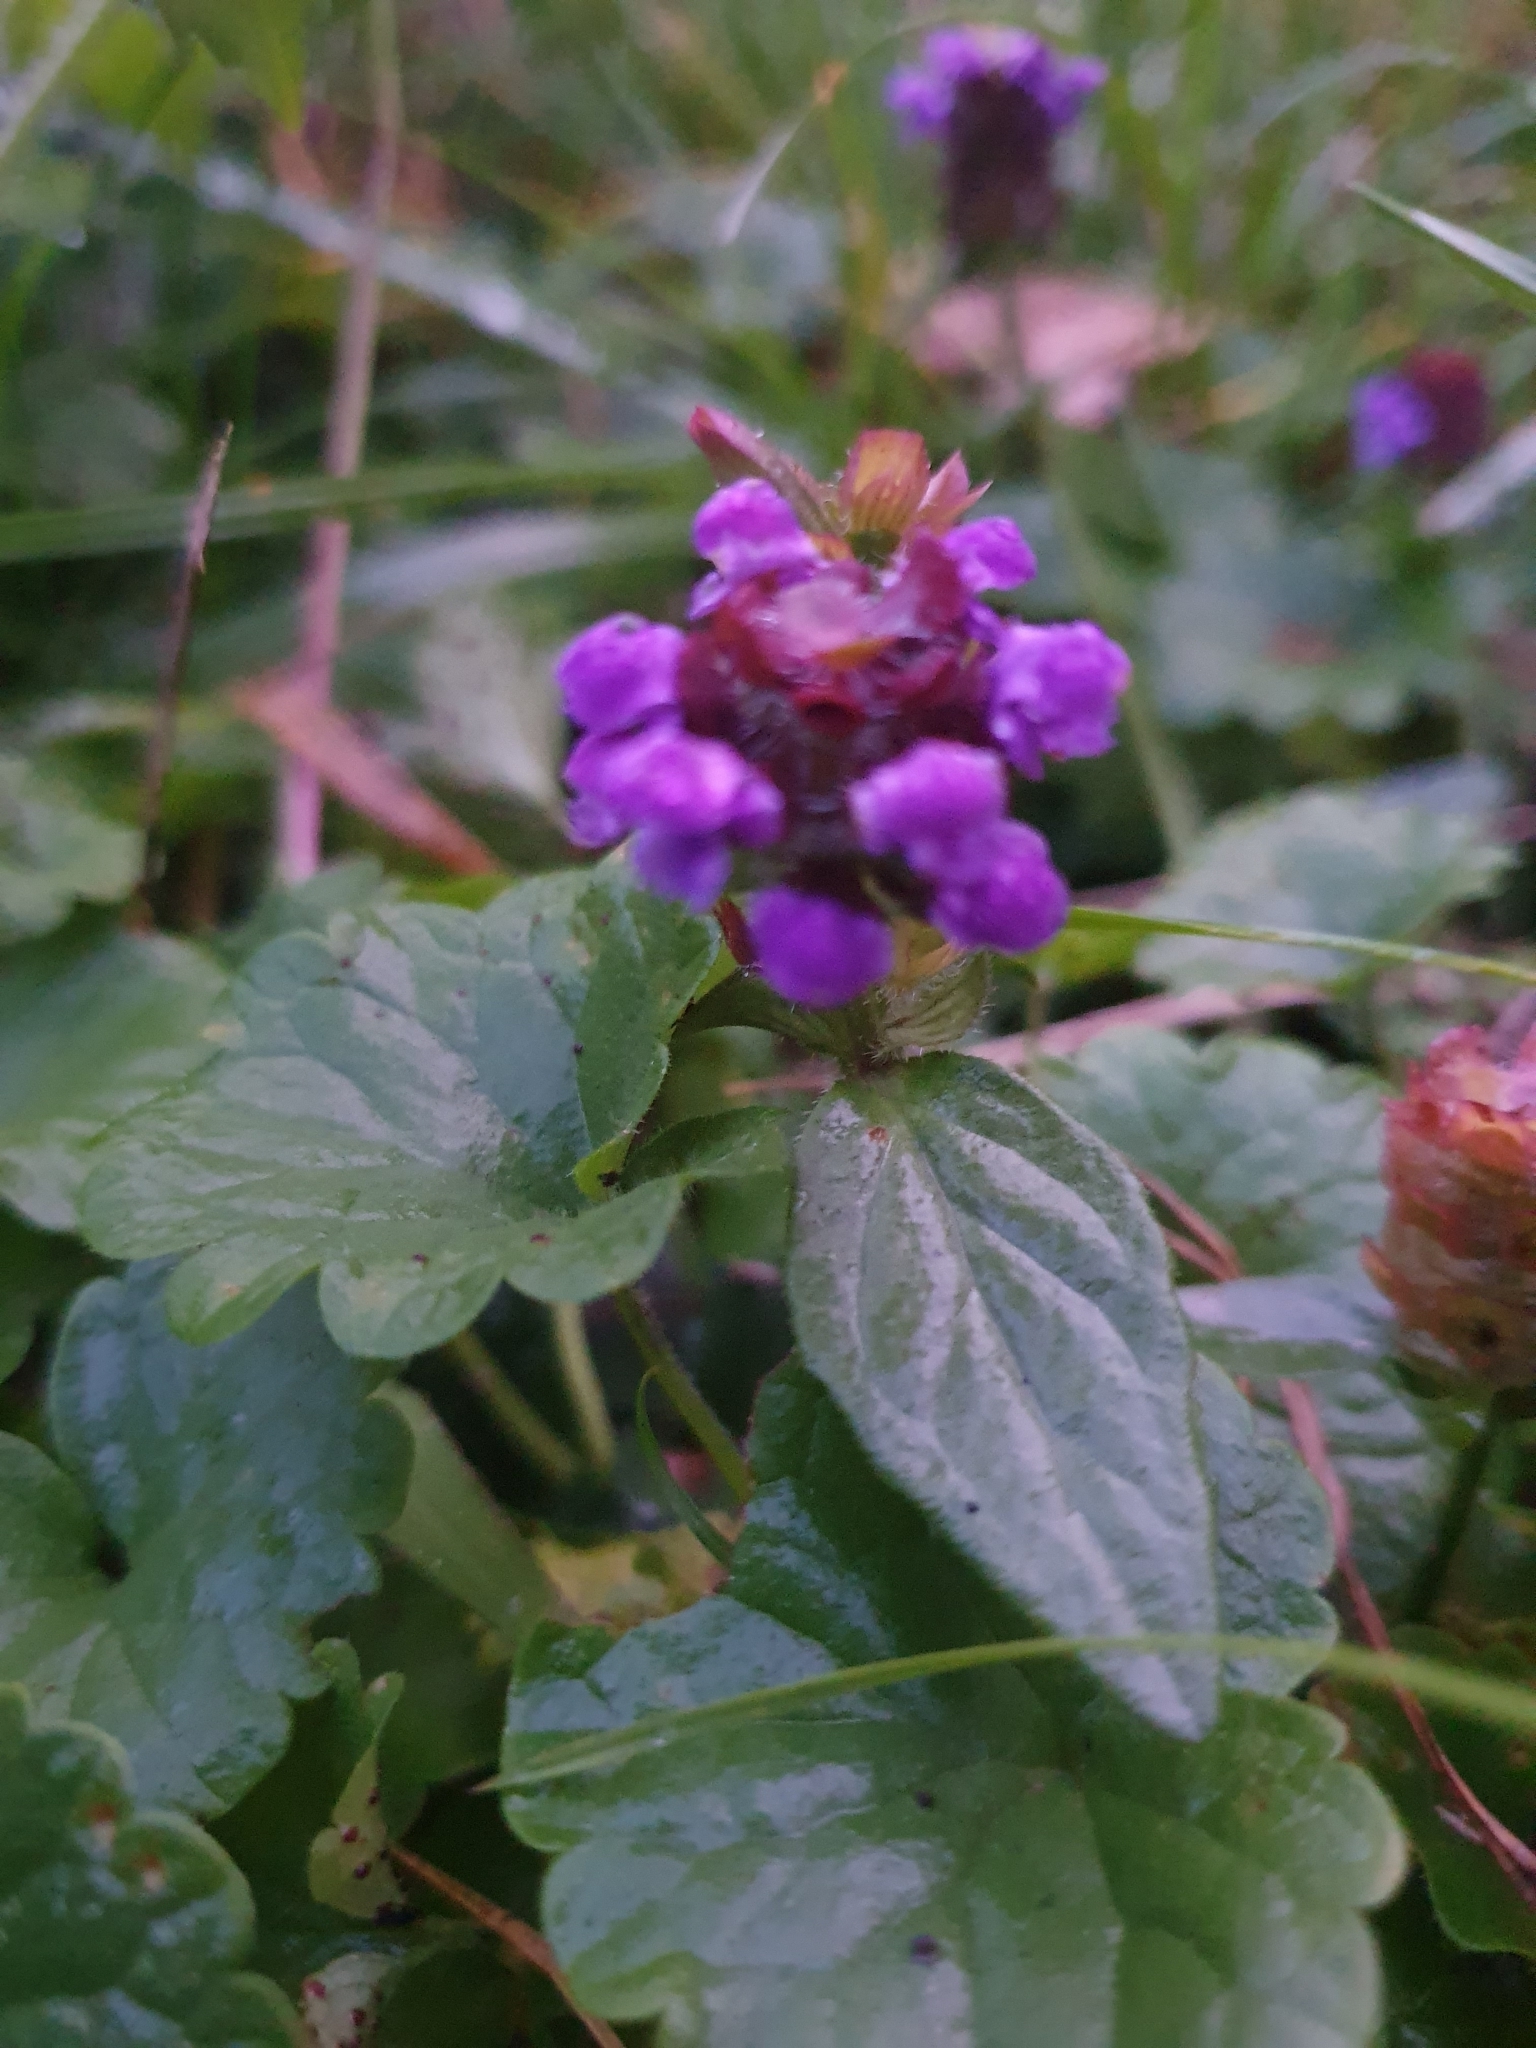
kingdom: Plantae
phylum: Tracheophyta
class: Magnoliopsida
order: Lamiales
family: Lamiaceae
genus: Prunella
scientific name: Prunella vulgaris
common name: Heal-all
